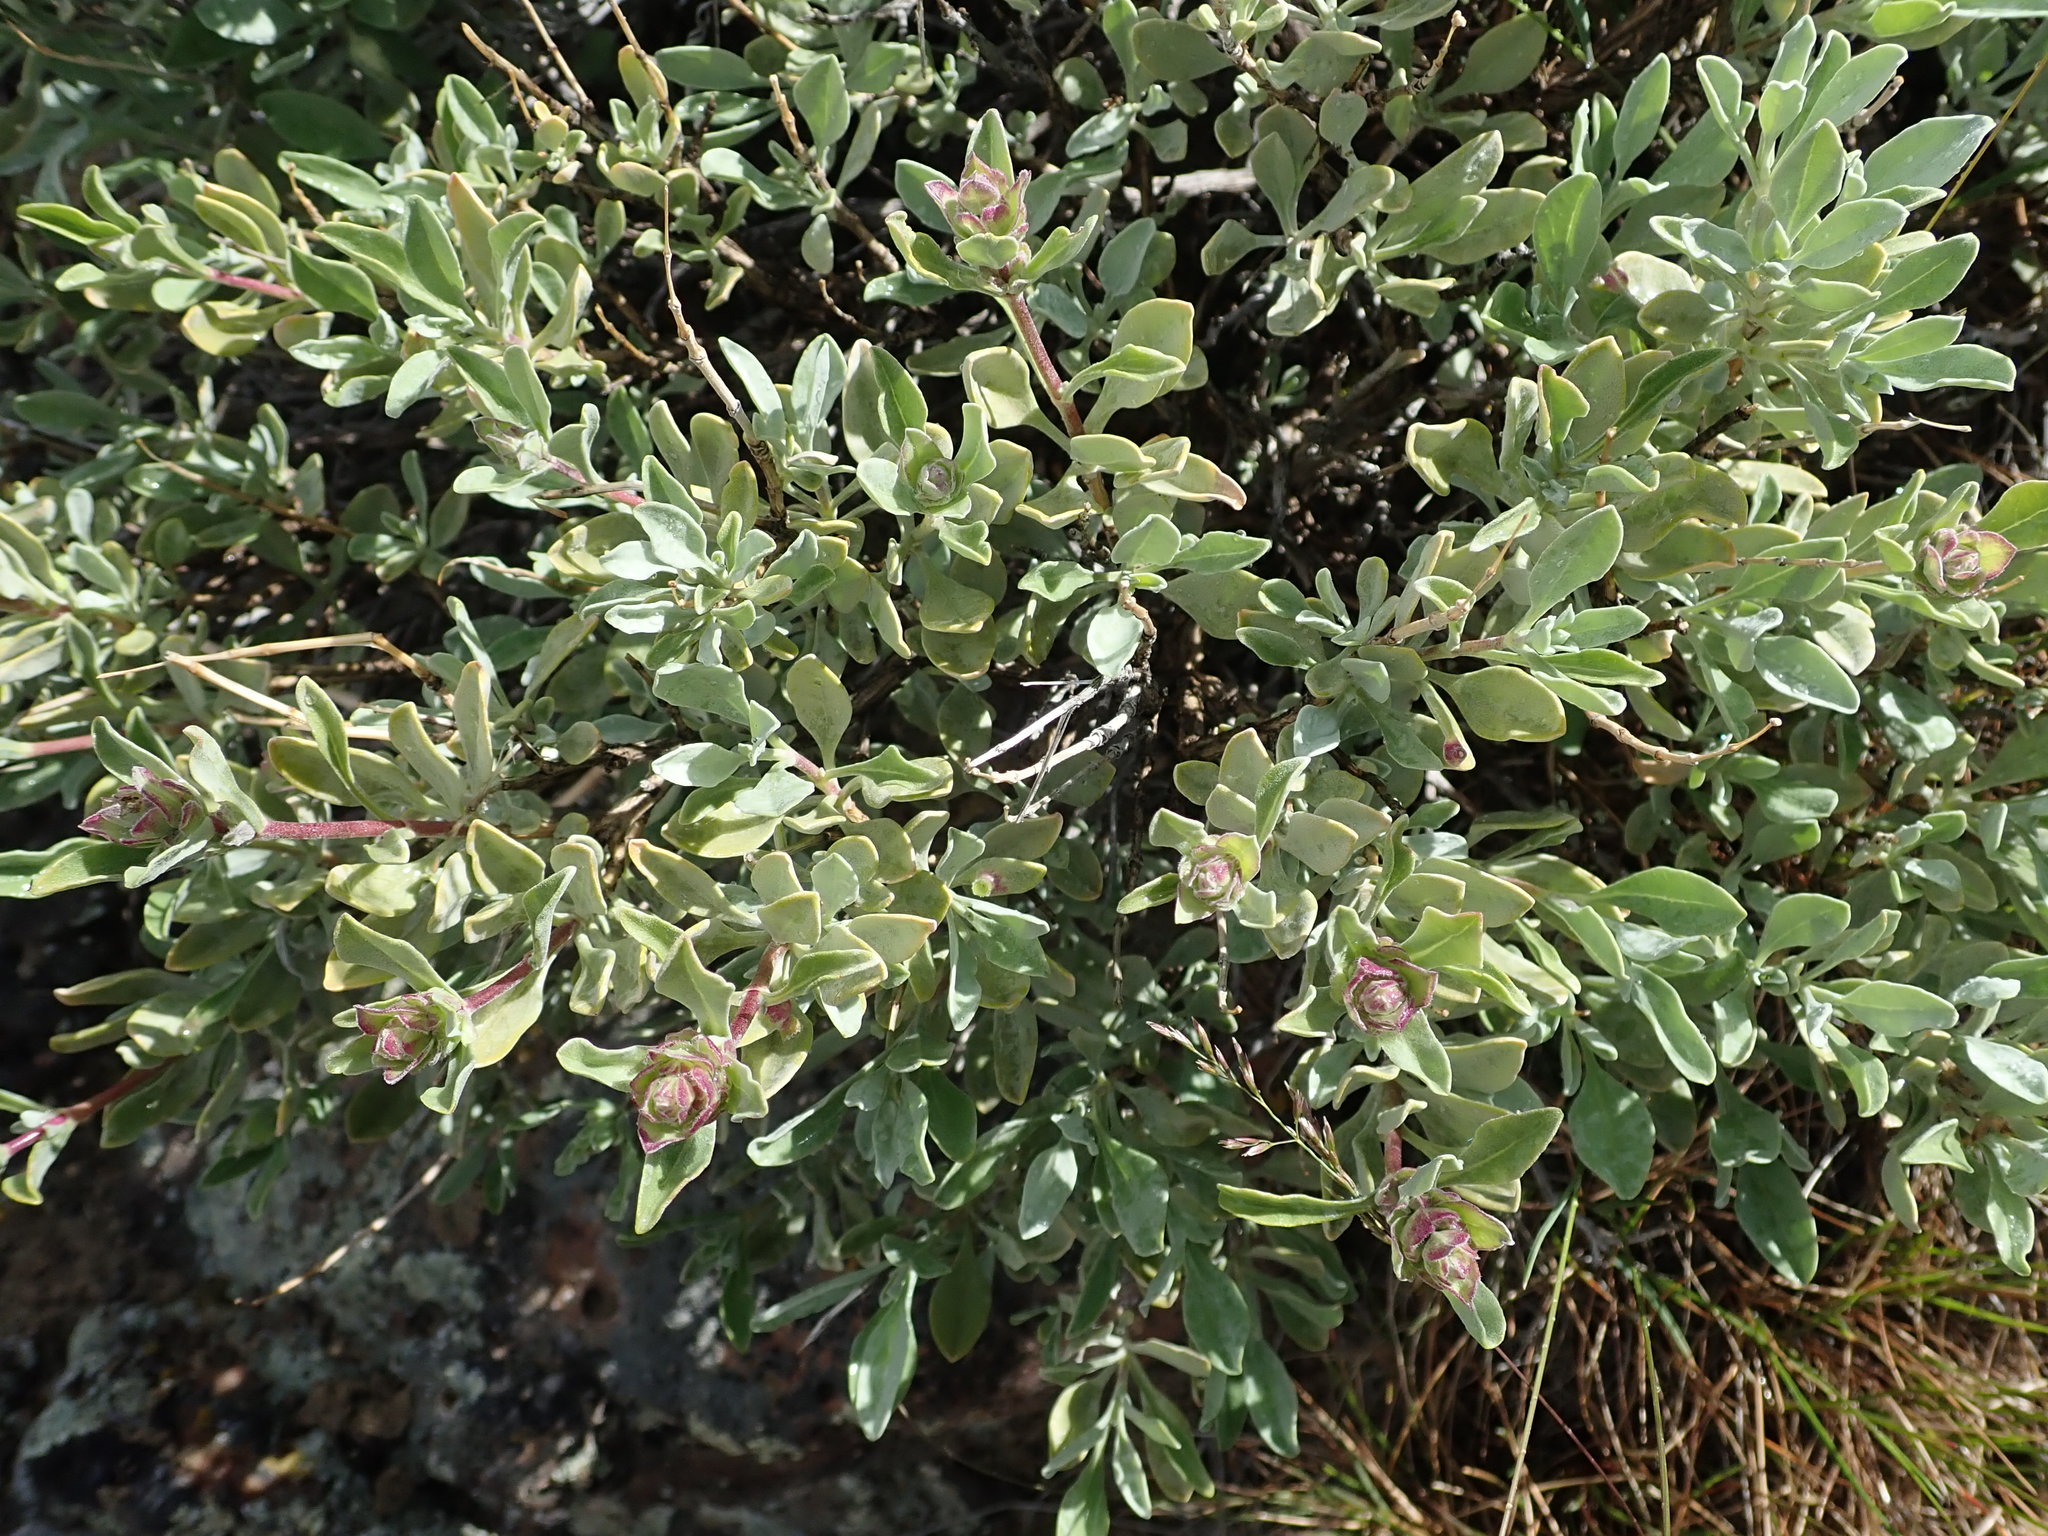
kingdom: Plantae
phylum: Tracheophyta
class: Magnoliopsida
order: Lamiales
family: Lamiaceae
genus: Salvia
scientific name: Salvia dorrii
